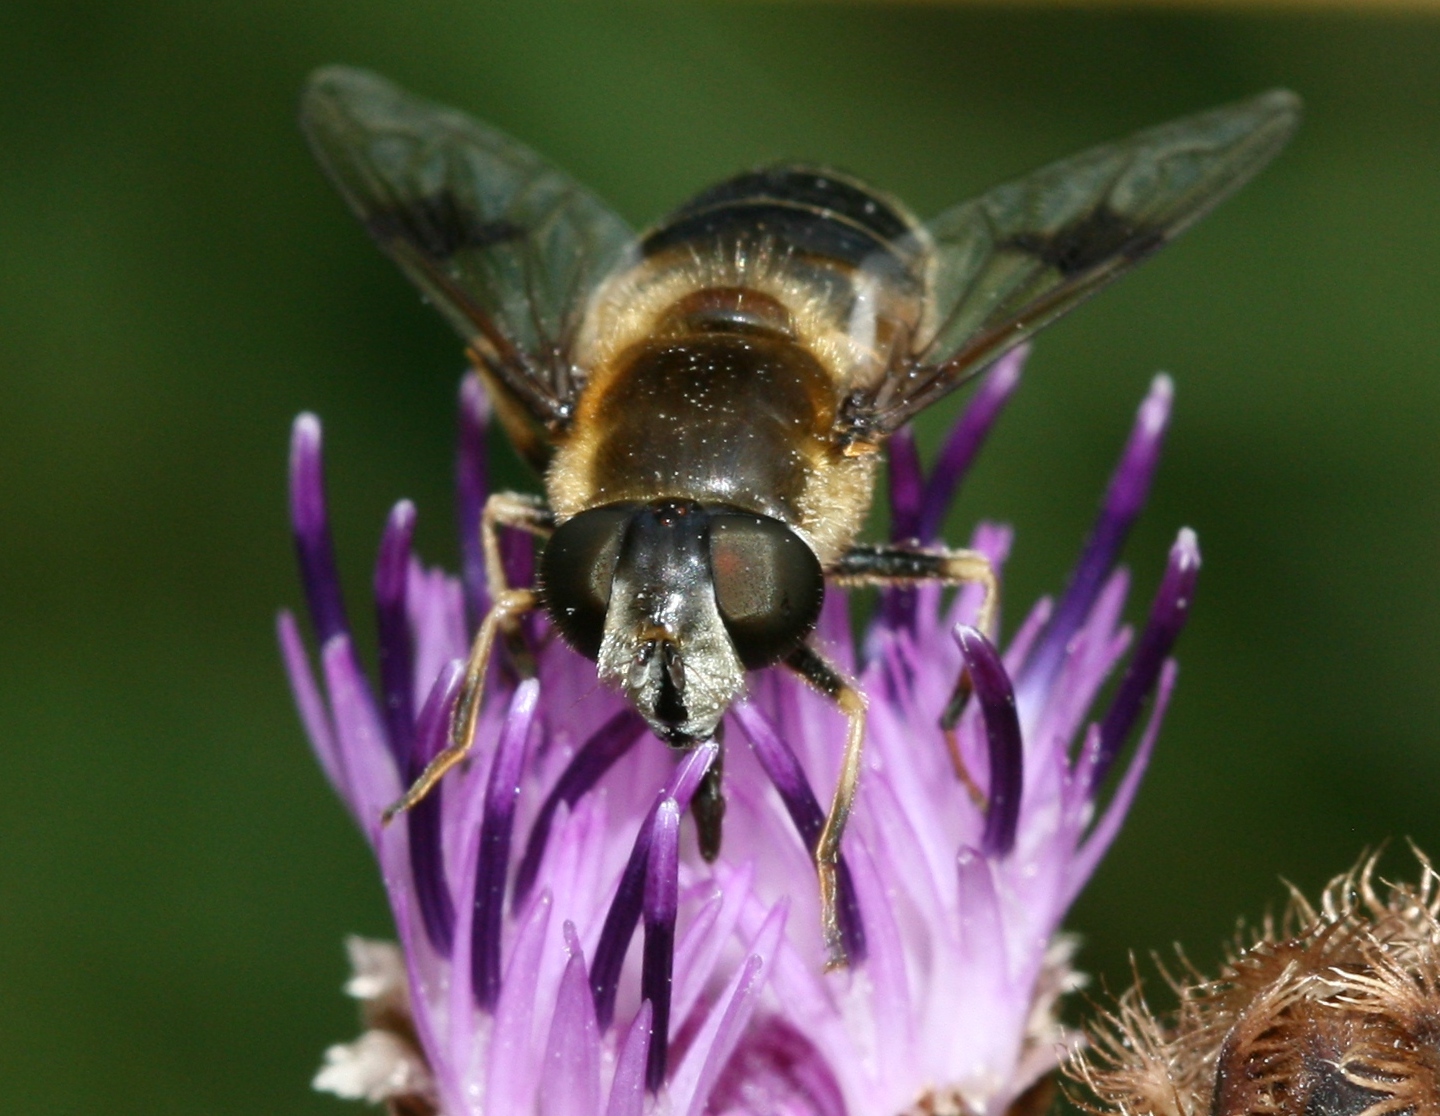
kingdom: Animalia
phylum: Arthropoda
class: Insecta
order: Diptera
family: Syrphidae
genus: Eristalis
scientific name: Eristalis rupium
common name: Hover fly
